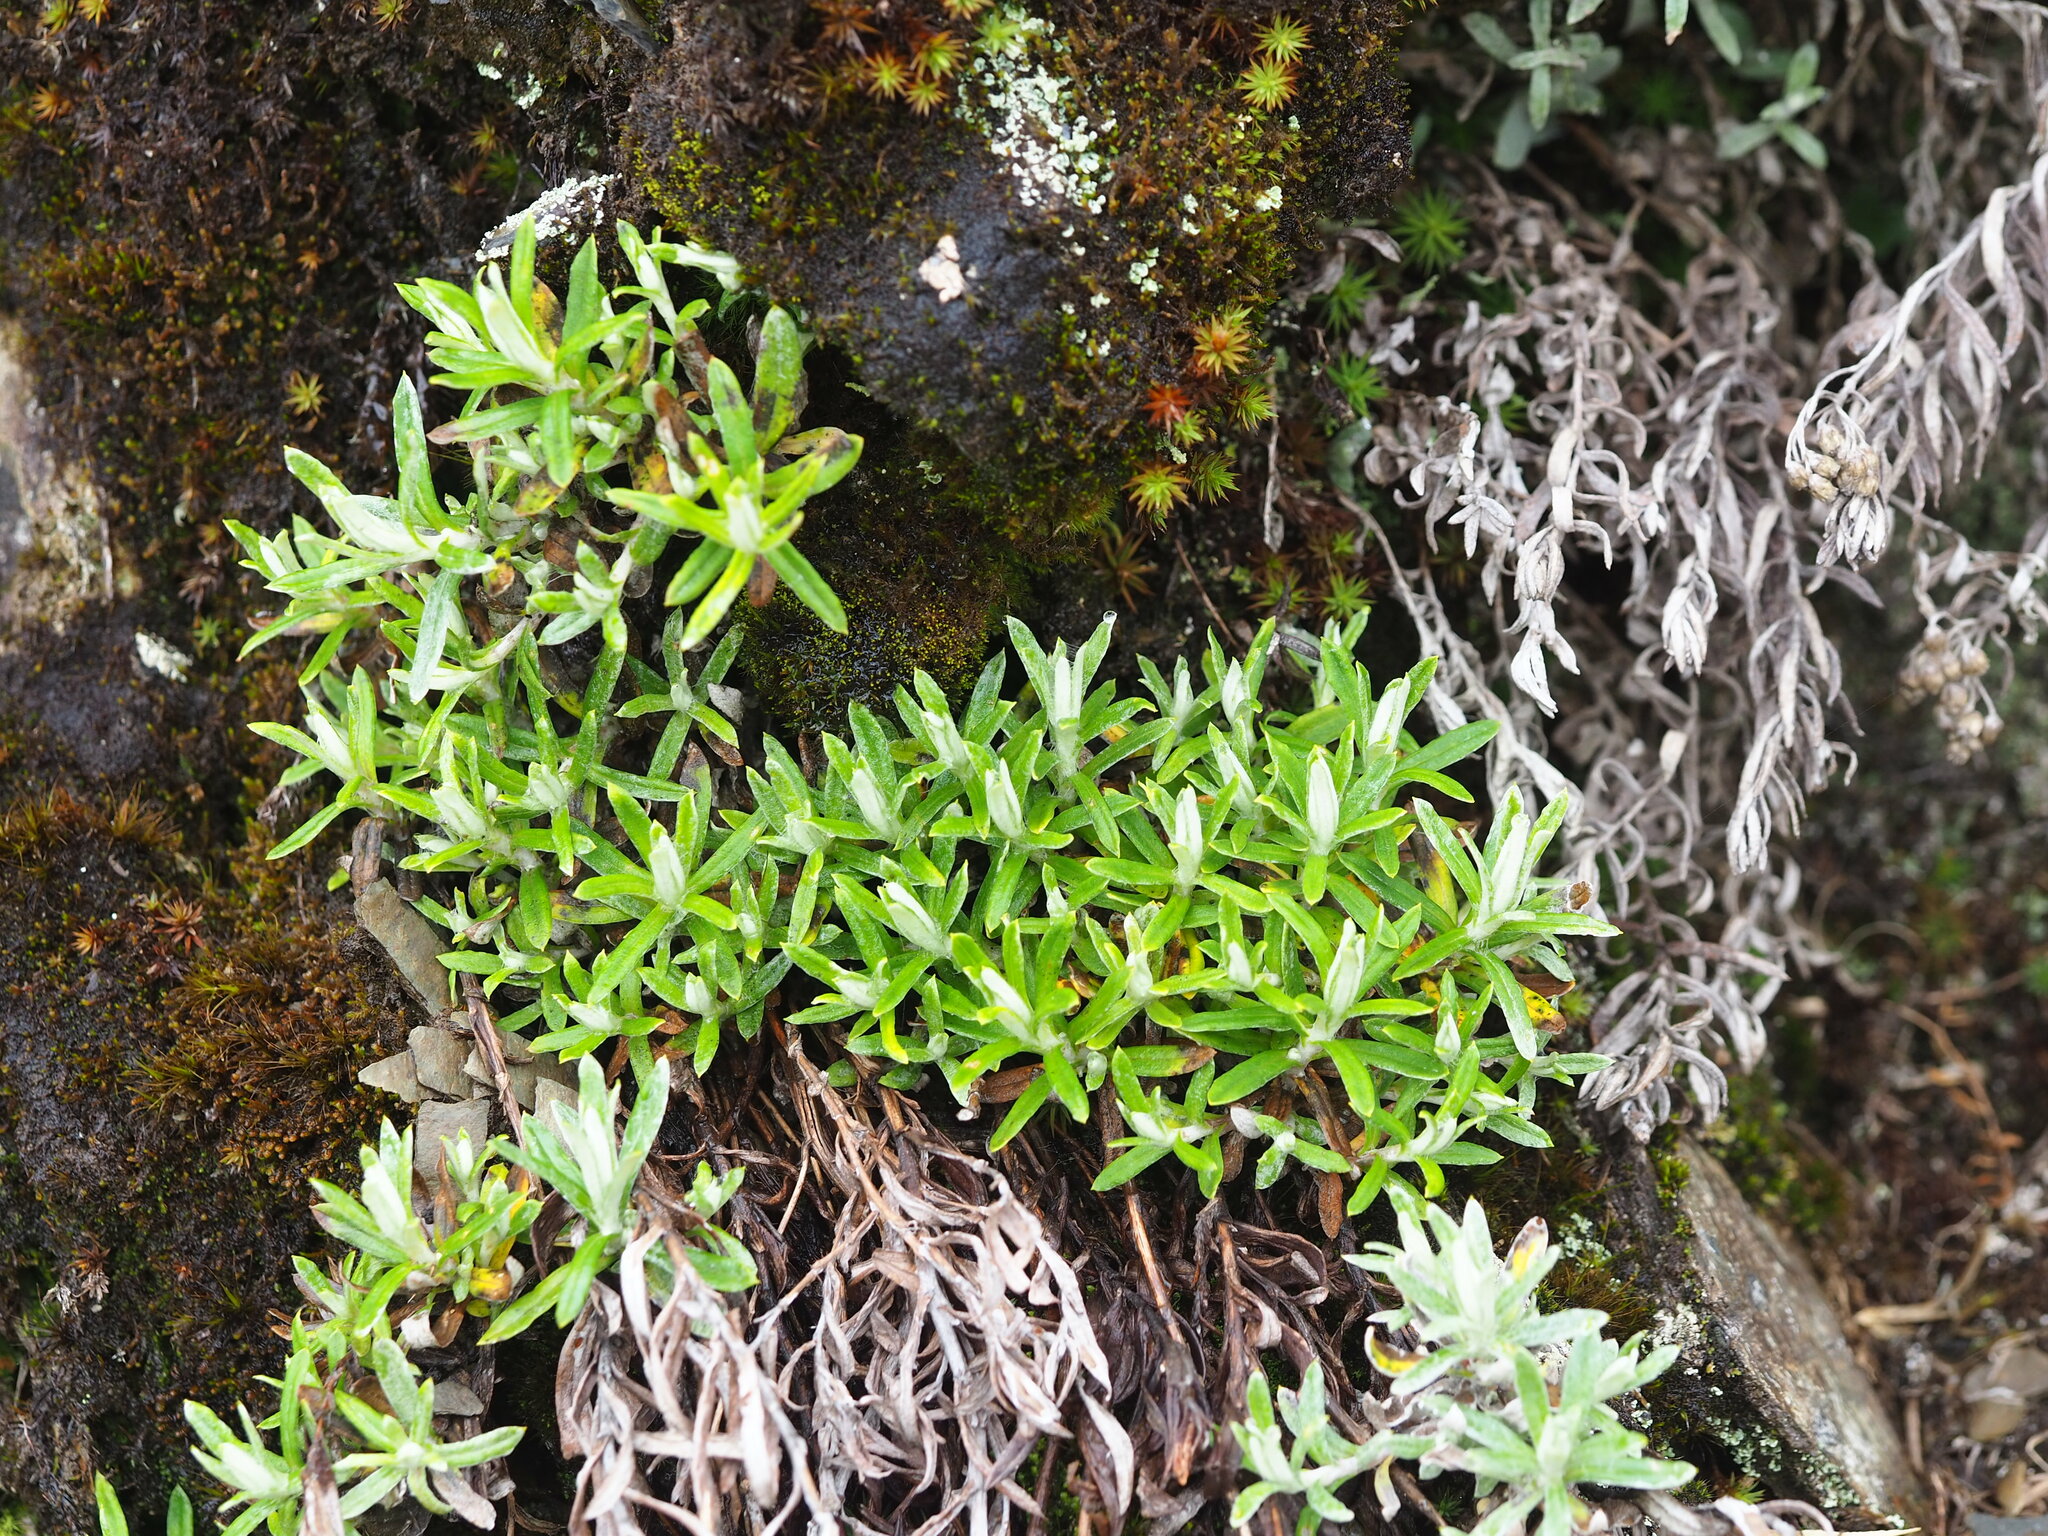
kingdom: Plantae
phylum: Tracheophyta
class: Magnoliopsida
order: Asterales
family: Asteraceae
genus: Anaphalis
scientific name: Anaphalis morrisonicola
